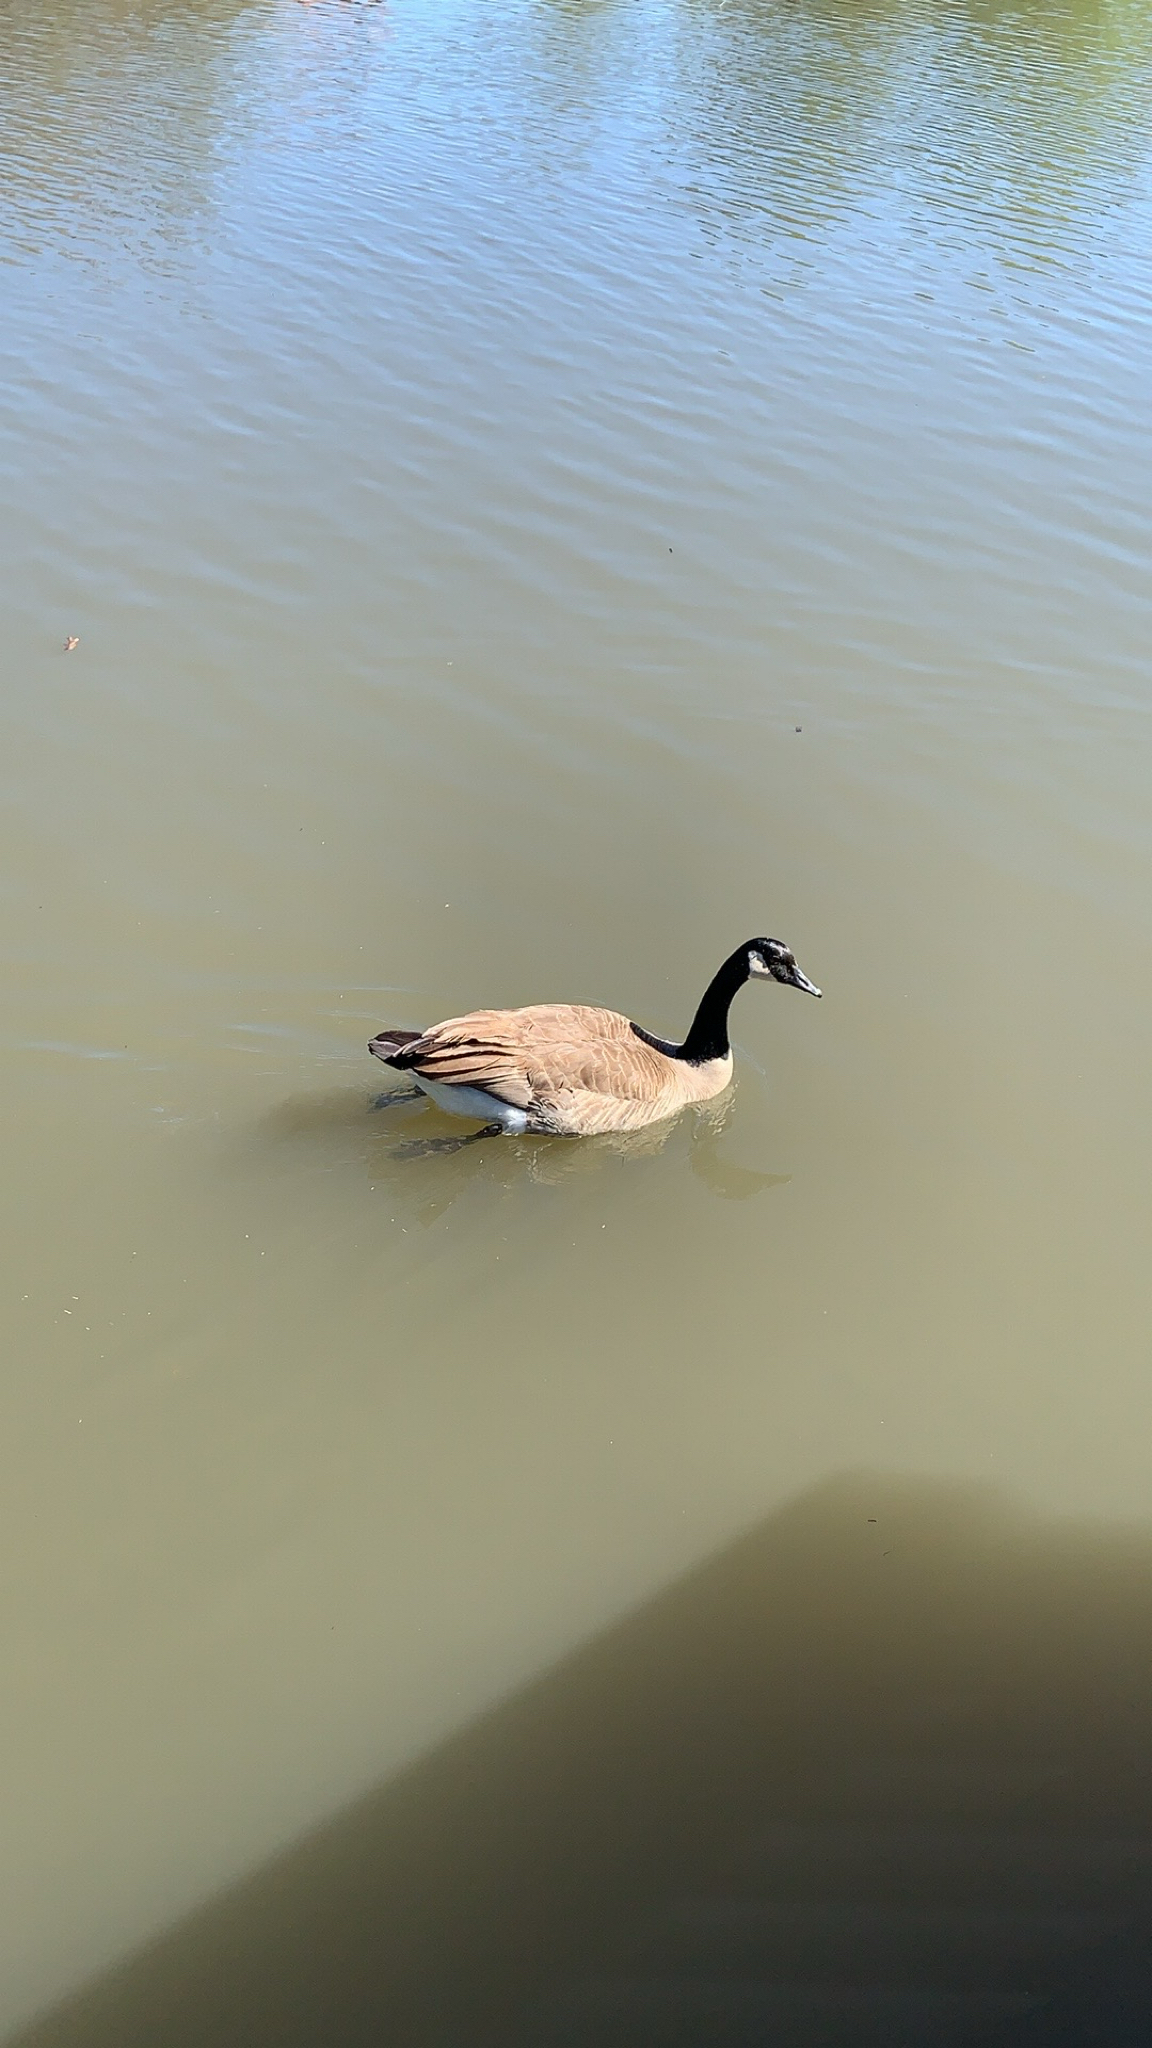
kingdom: Animalia
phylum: Chordata
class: Aves
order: Anseriformes
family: Anatidae
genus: Branta
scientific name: Branta canadensis
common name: Canada goose
